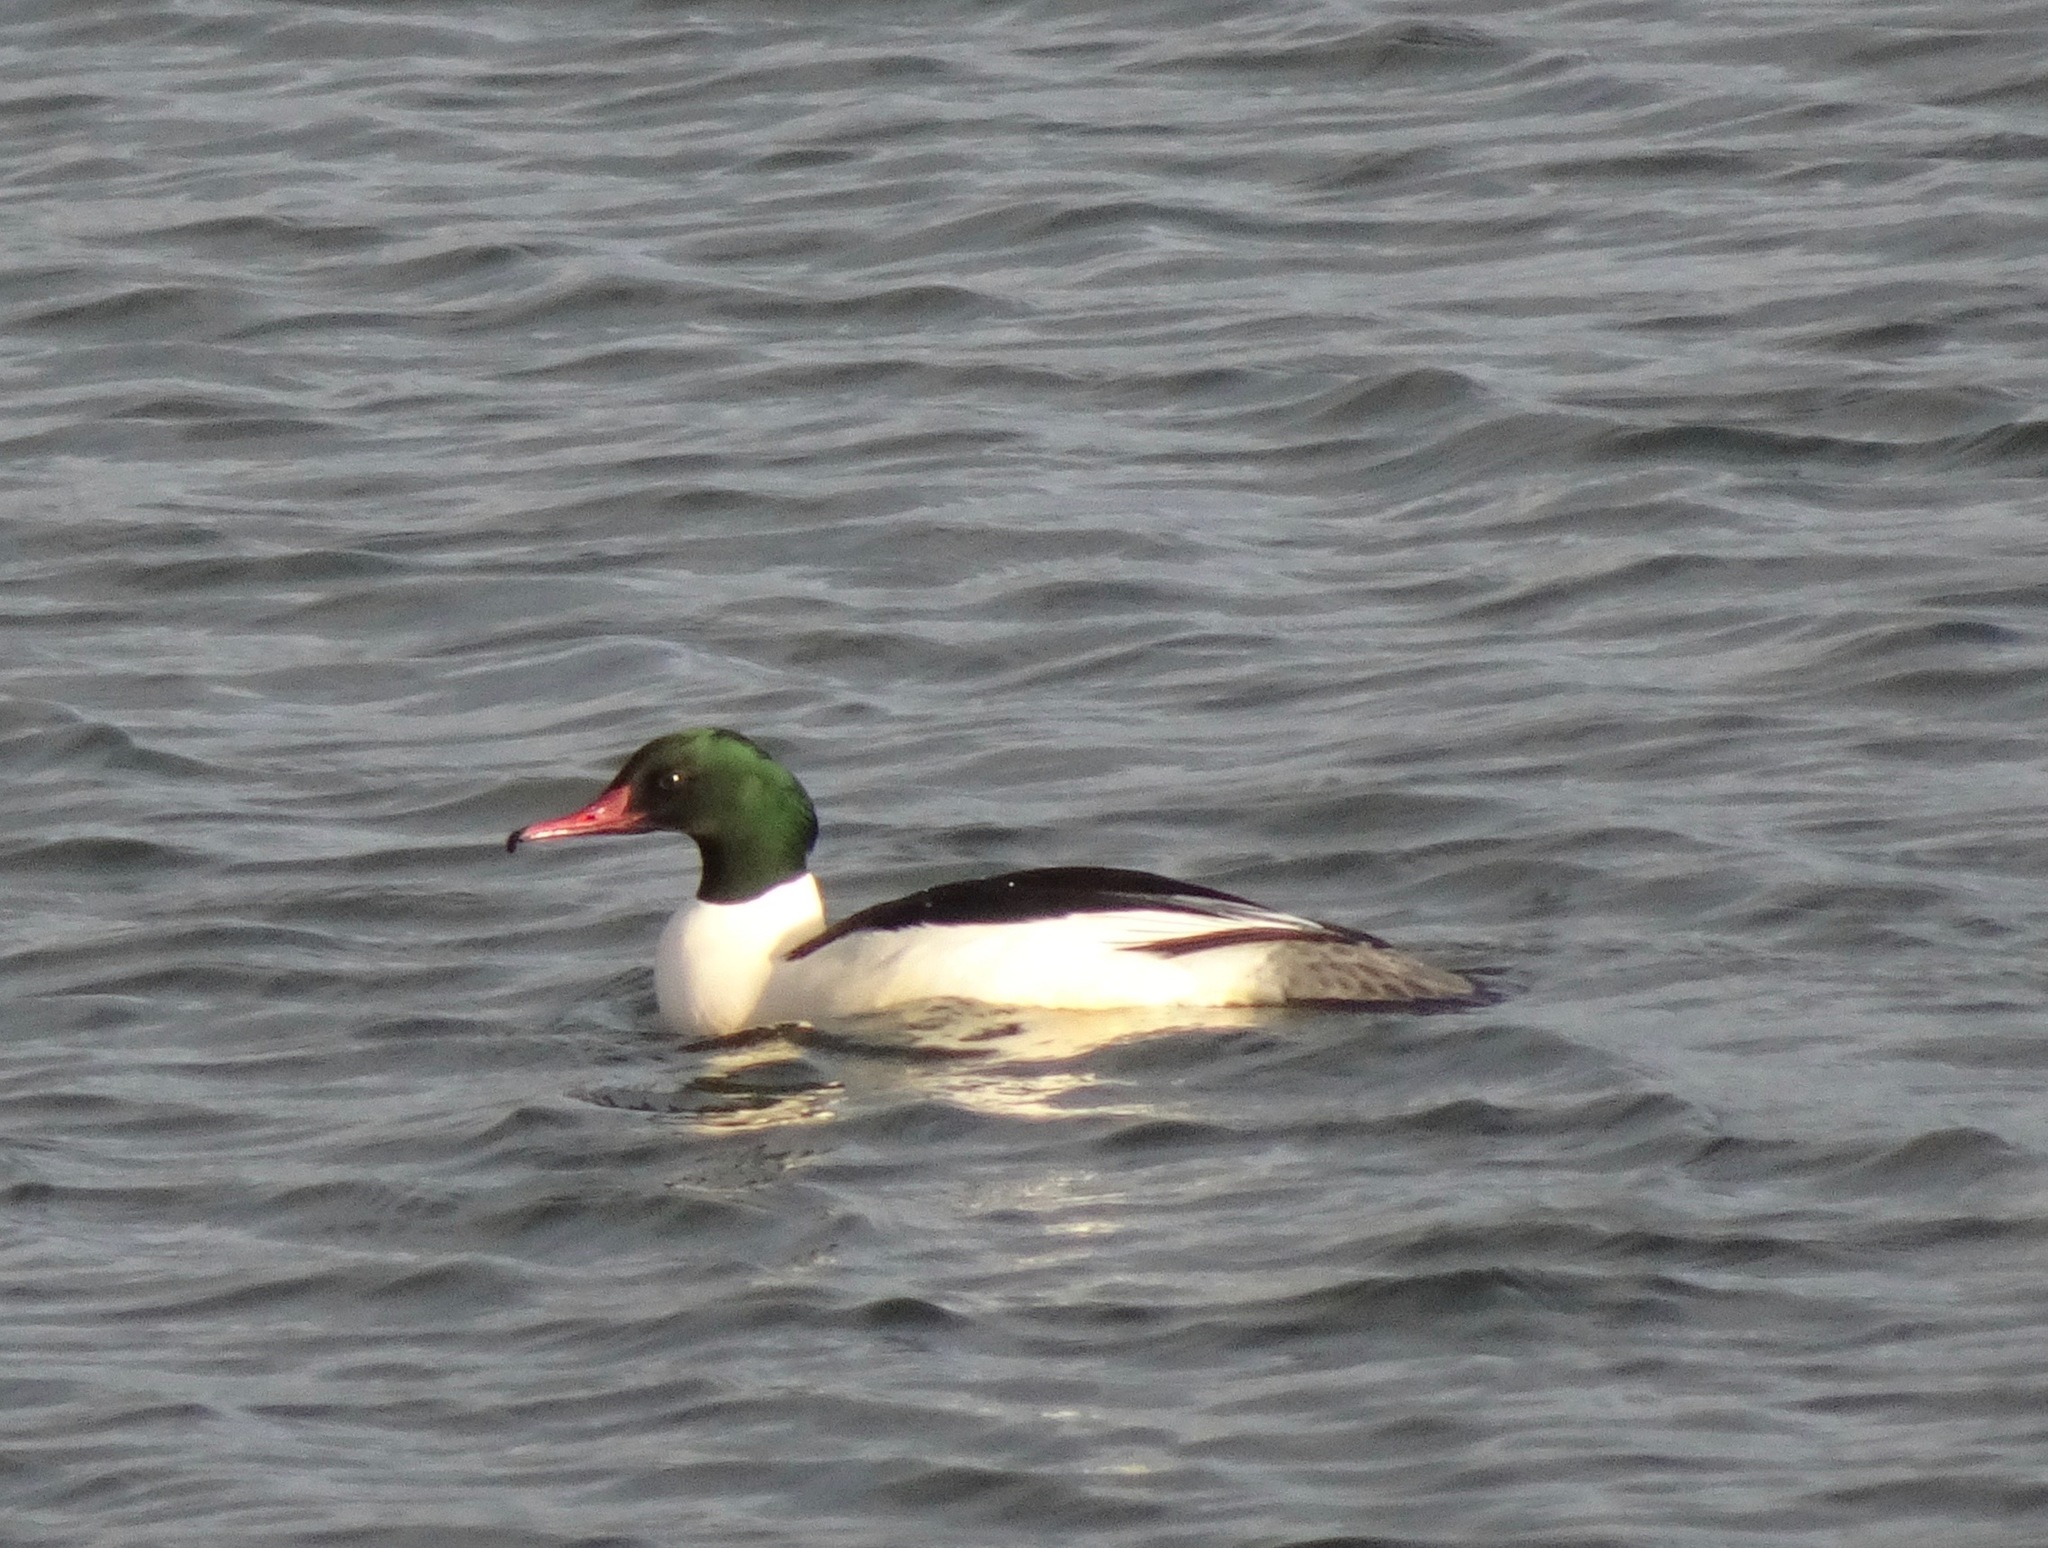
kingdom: Animalia
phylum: Chordata
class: Aves
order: Anseriformes
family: Anatidae
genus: Mergus
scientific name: Mergus merganser
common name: Common merganser
